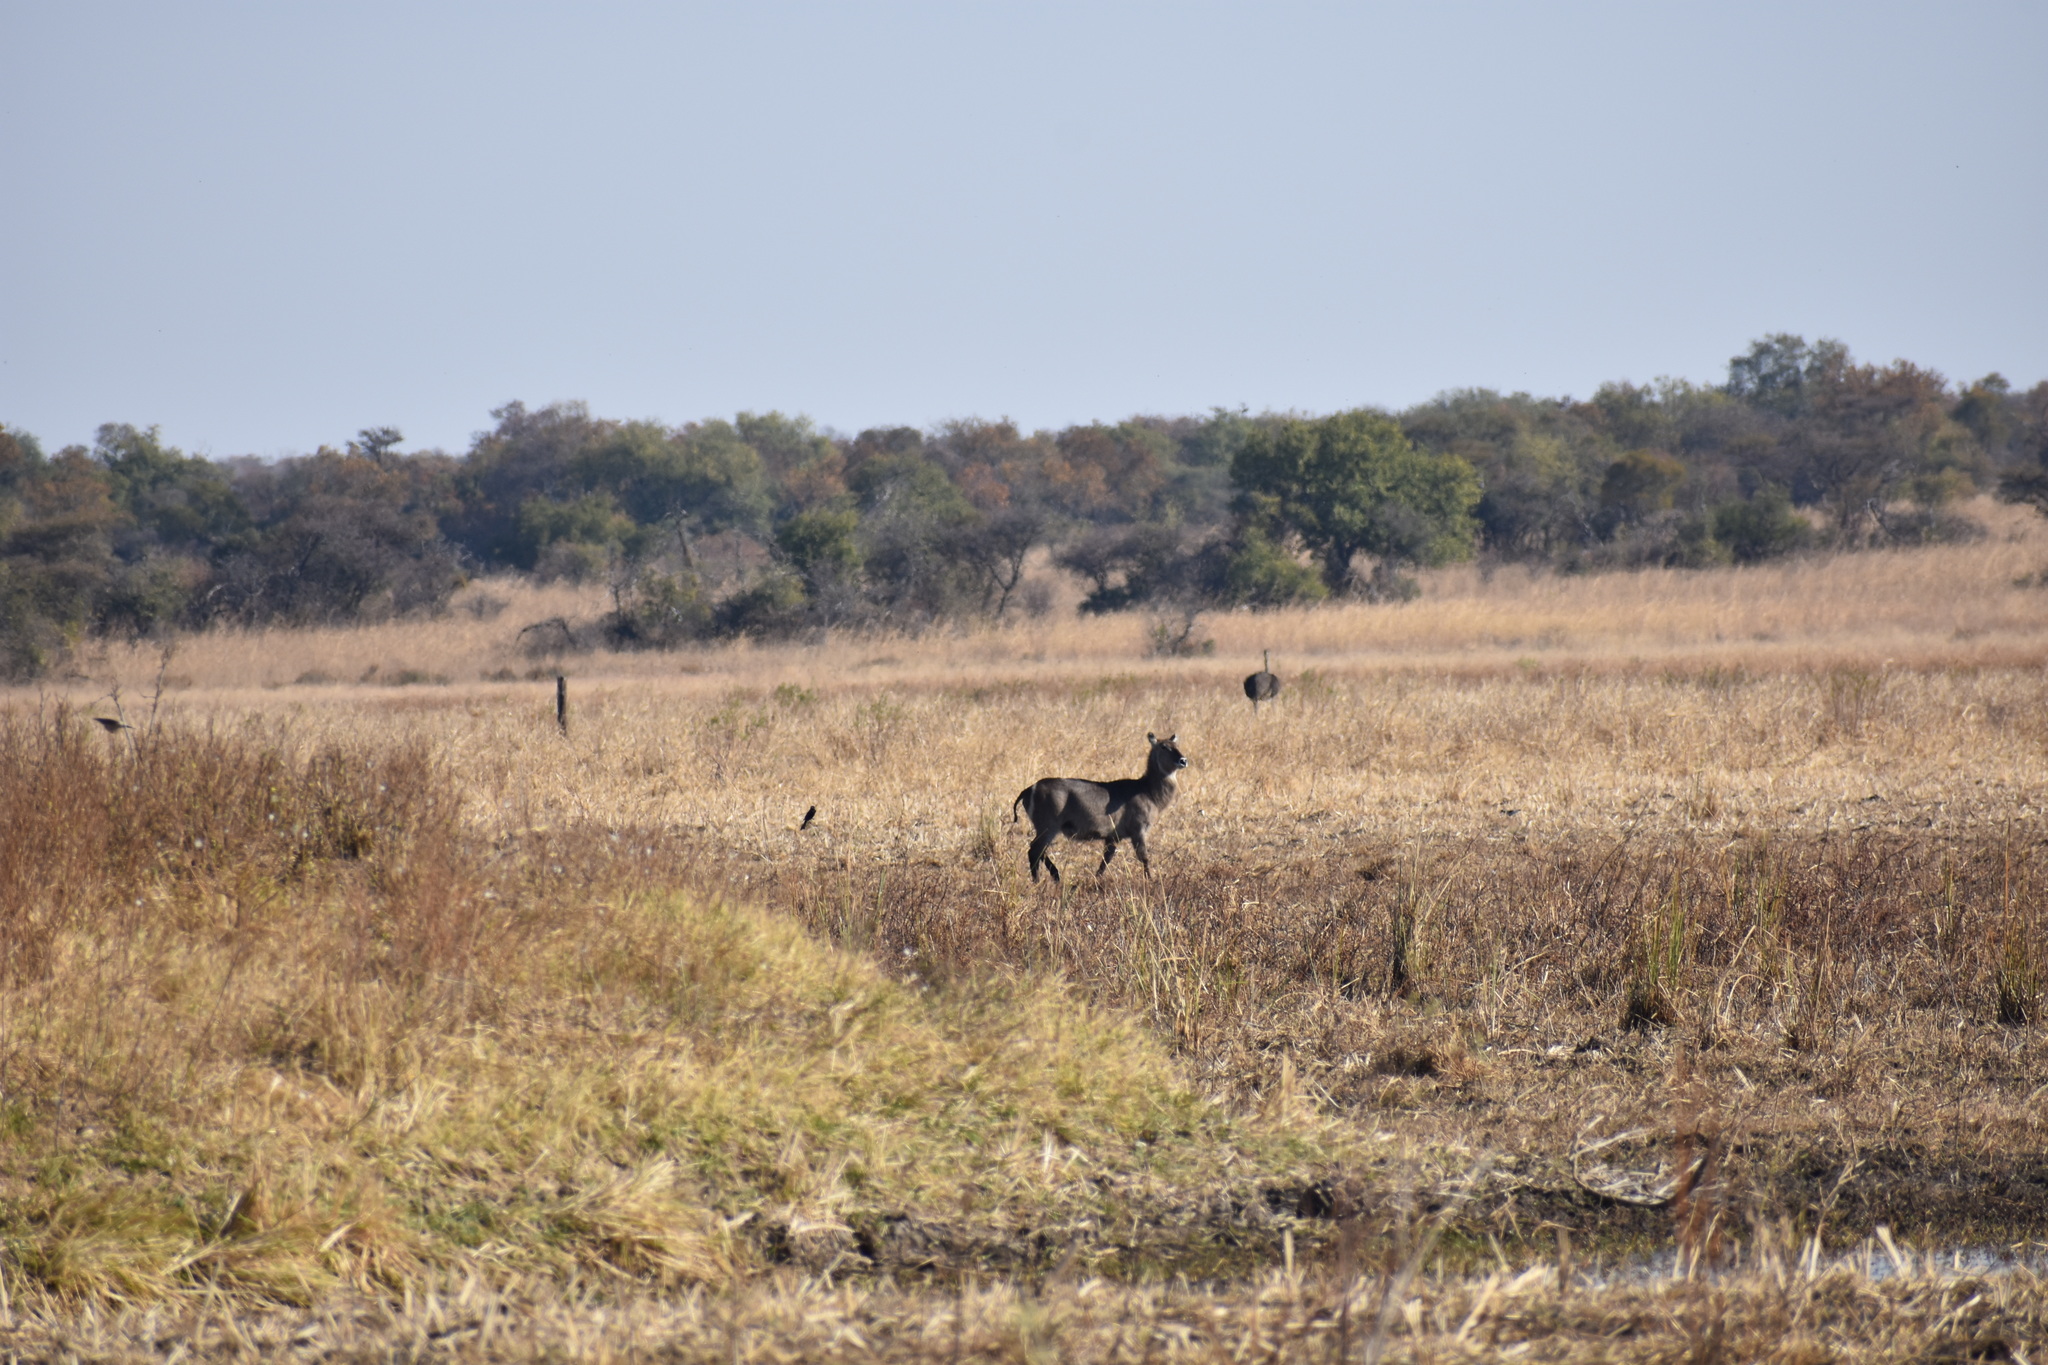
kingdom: Animalia
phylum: Chordata
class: Mammalia
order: Artiodactyla
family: Bovidae
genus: Kobus
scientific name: Kobus ellipsiprymnus
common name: Waterbuck
